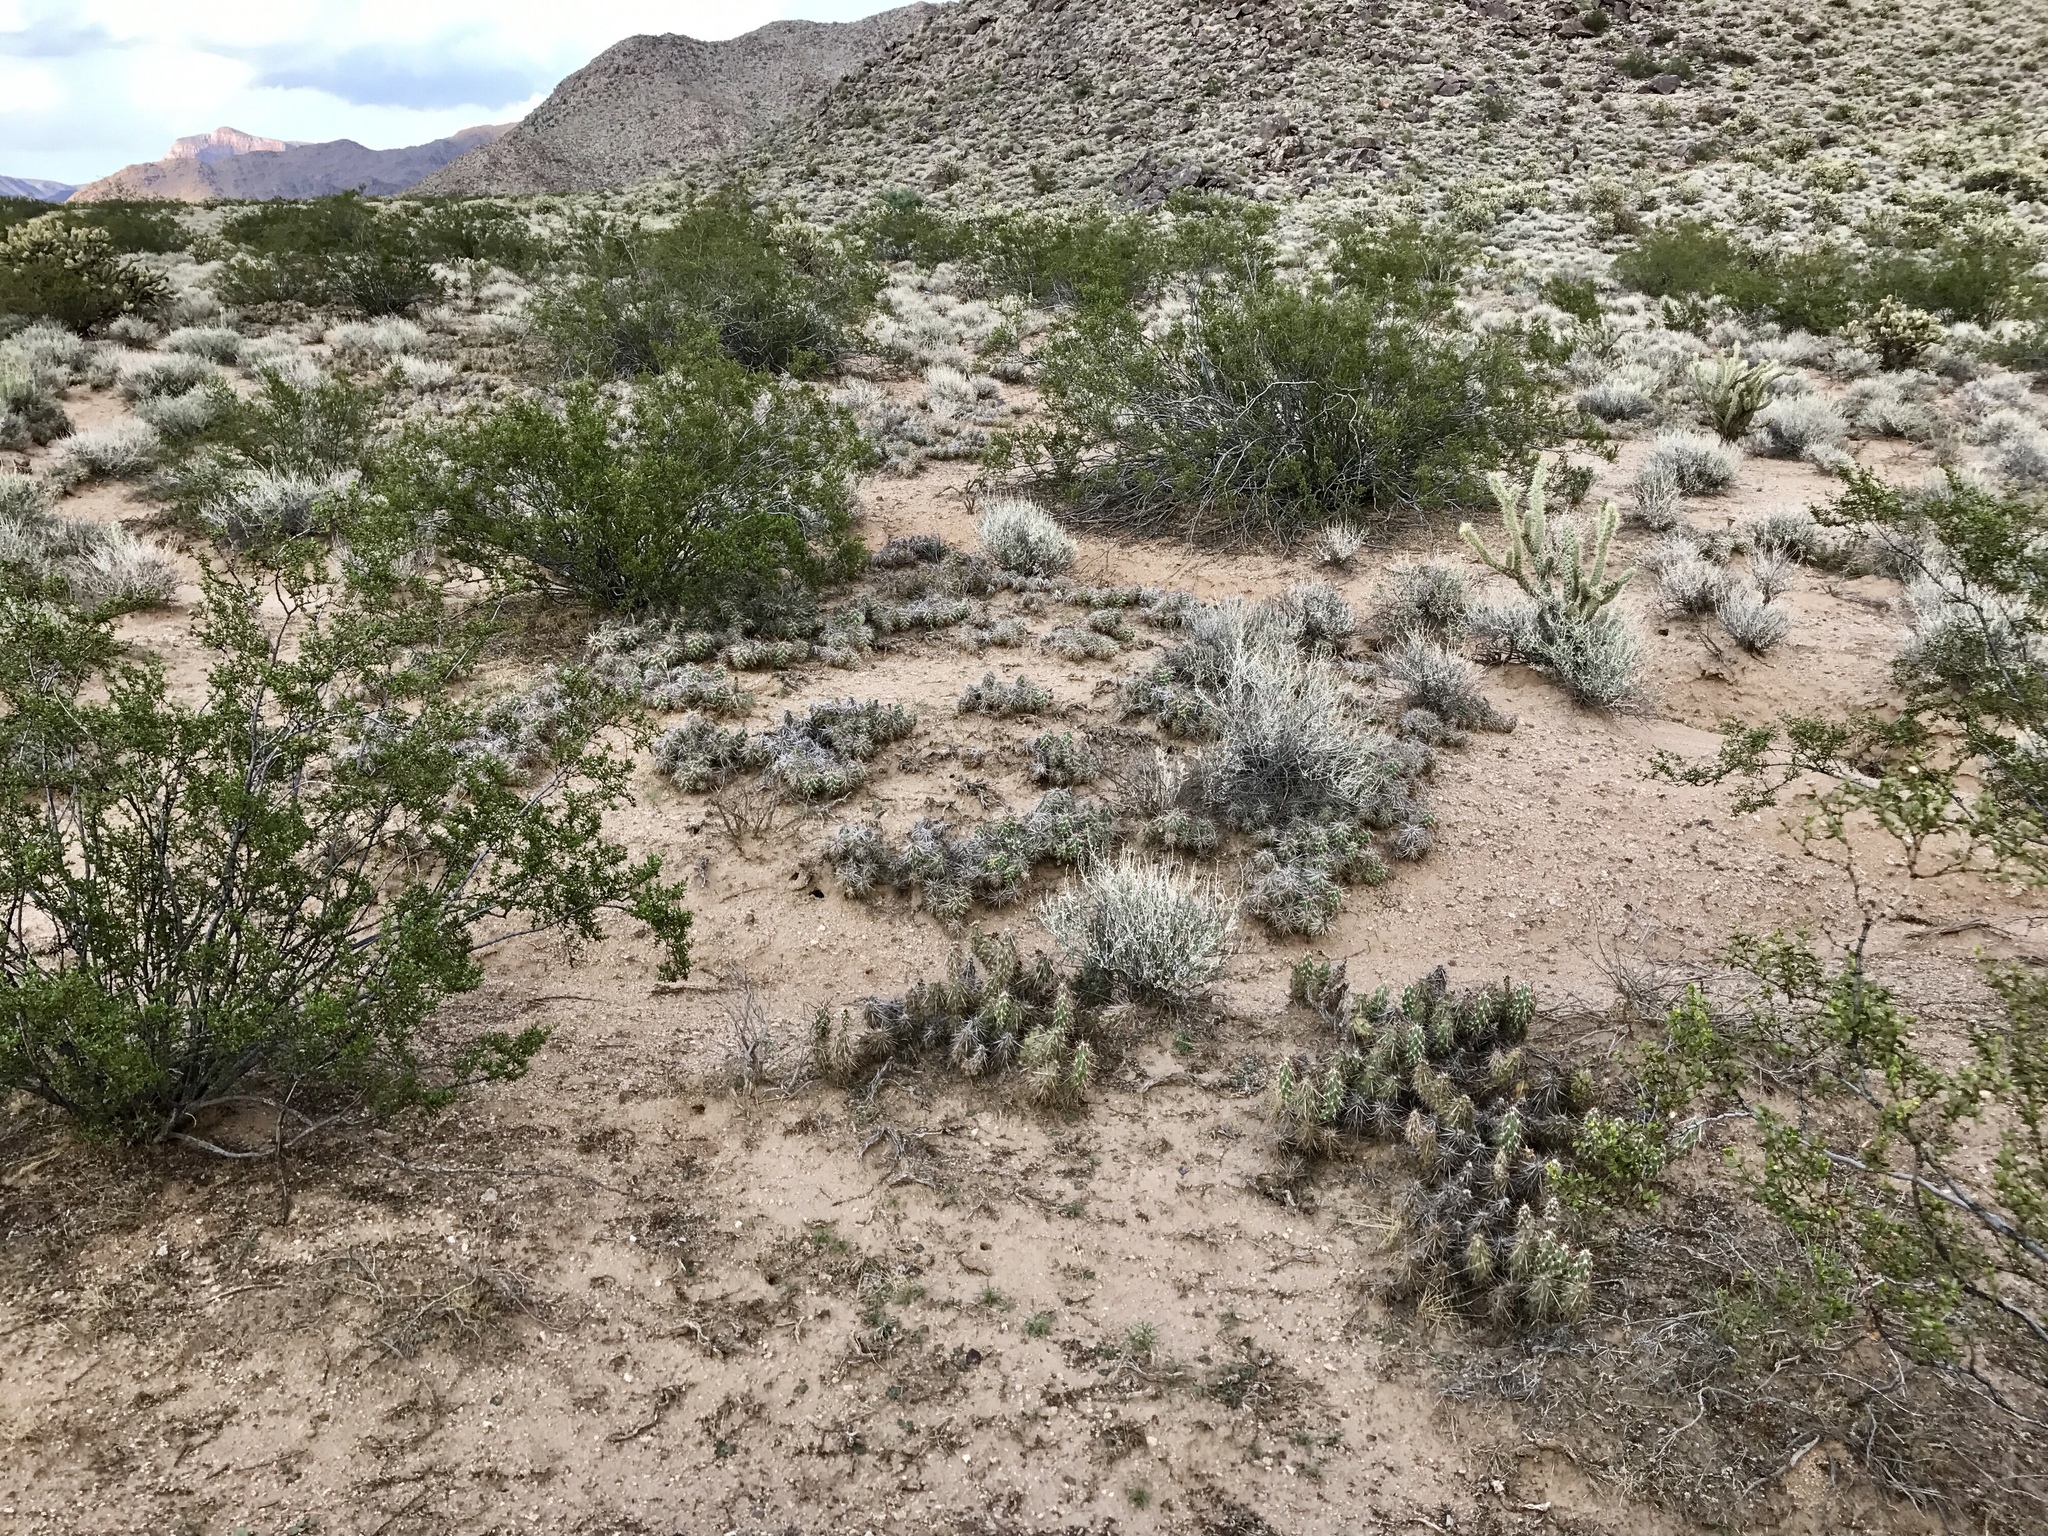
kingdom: Plantae
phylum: Tracheophyta
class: Magnoliopsida
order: Caryophyllales
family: Cactaceae
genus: Grusonia
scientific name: Grusonia parishiorum
